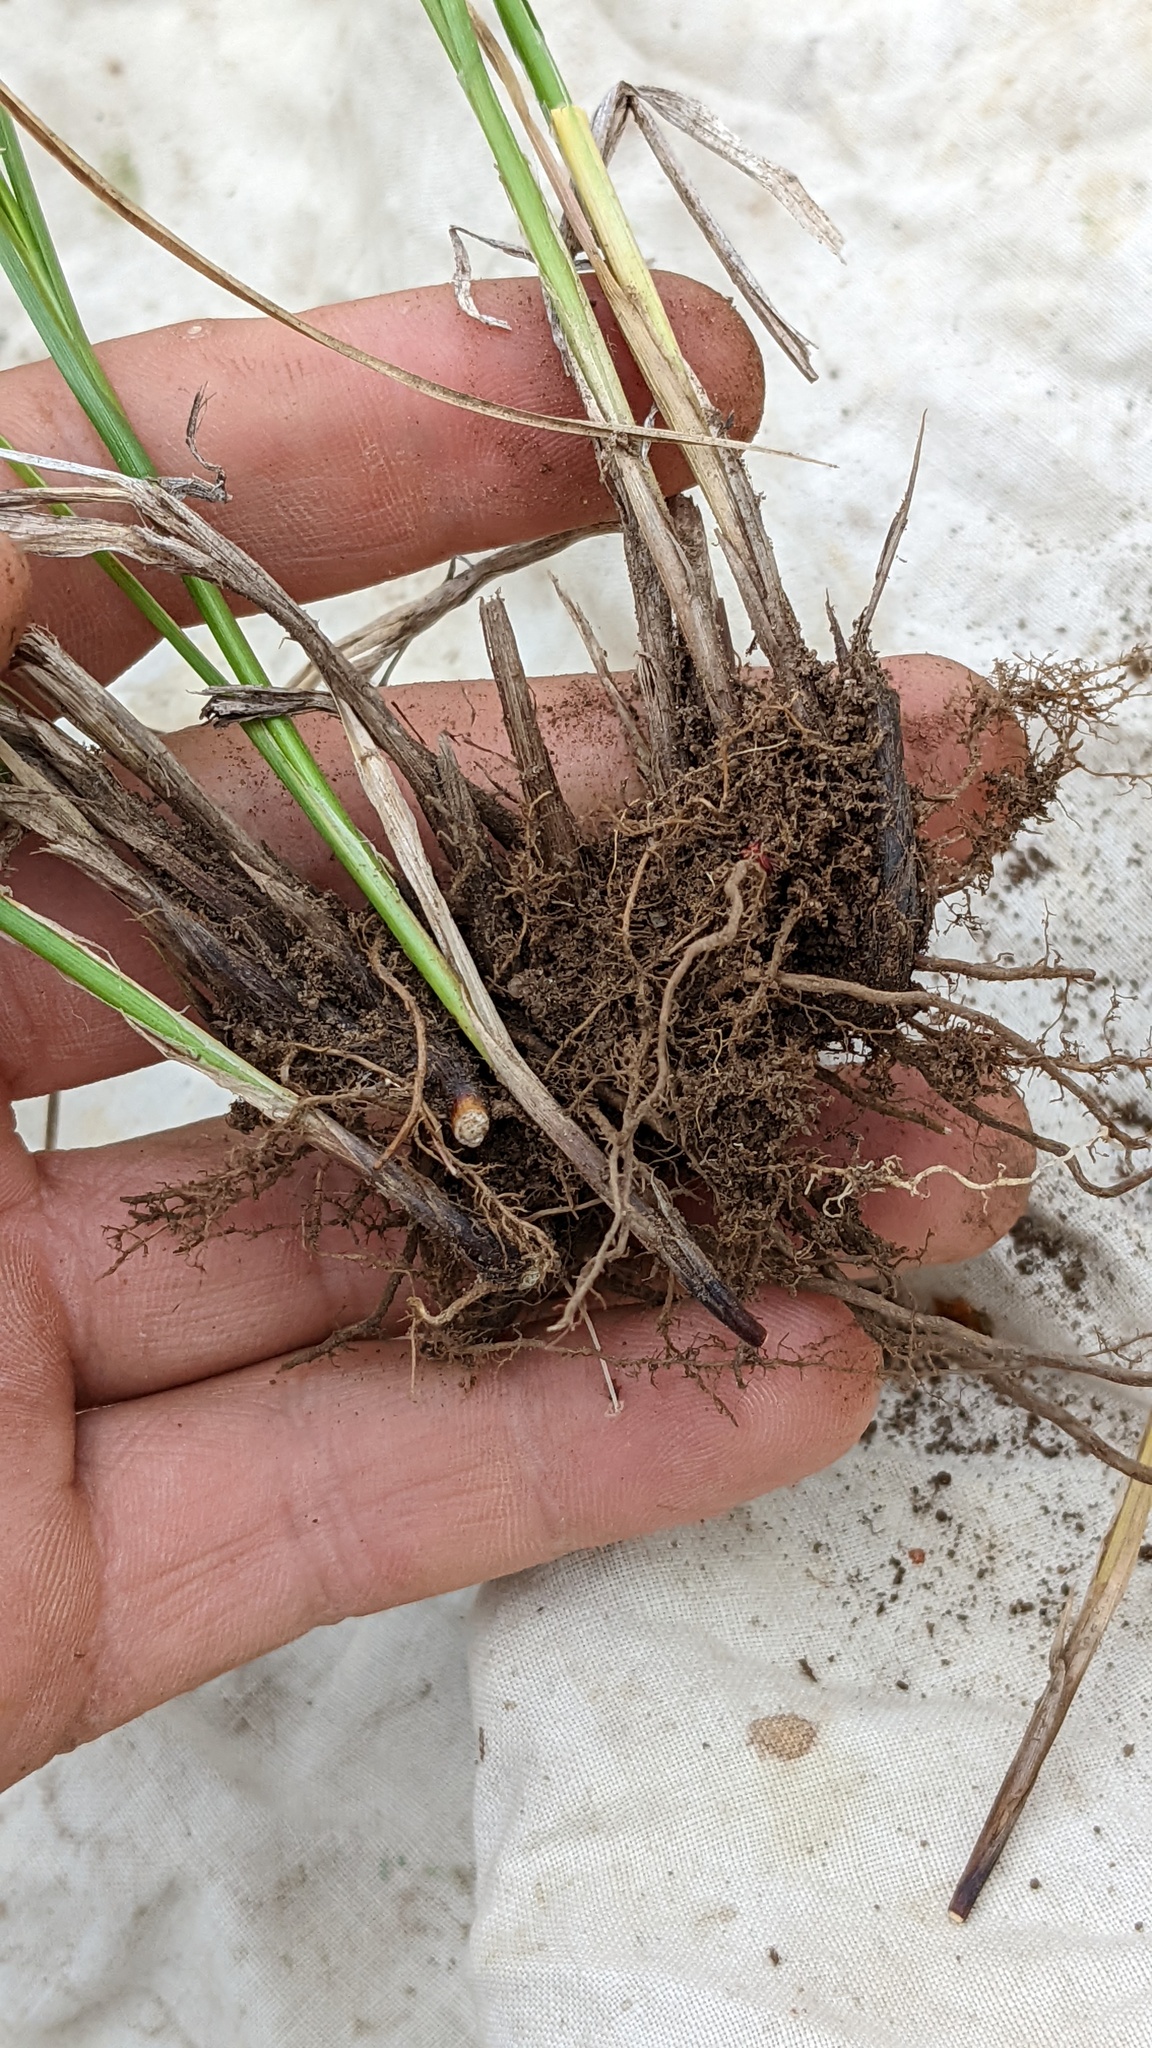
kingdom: Plantae
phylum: Tracheophyta
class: Liliopsida
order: Poales
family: Cyperaceae
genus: Carex
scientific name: Carex vallicola
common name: Valley sedge
